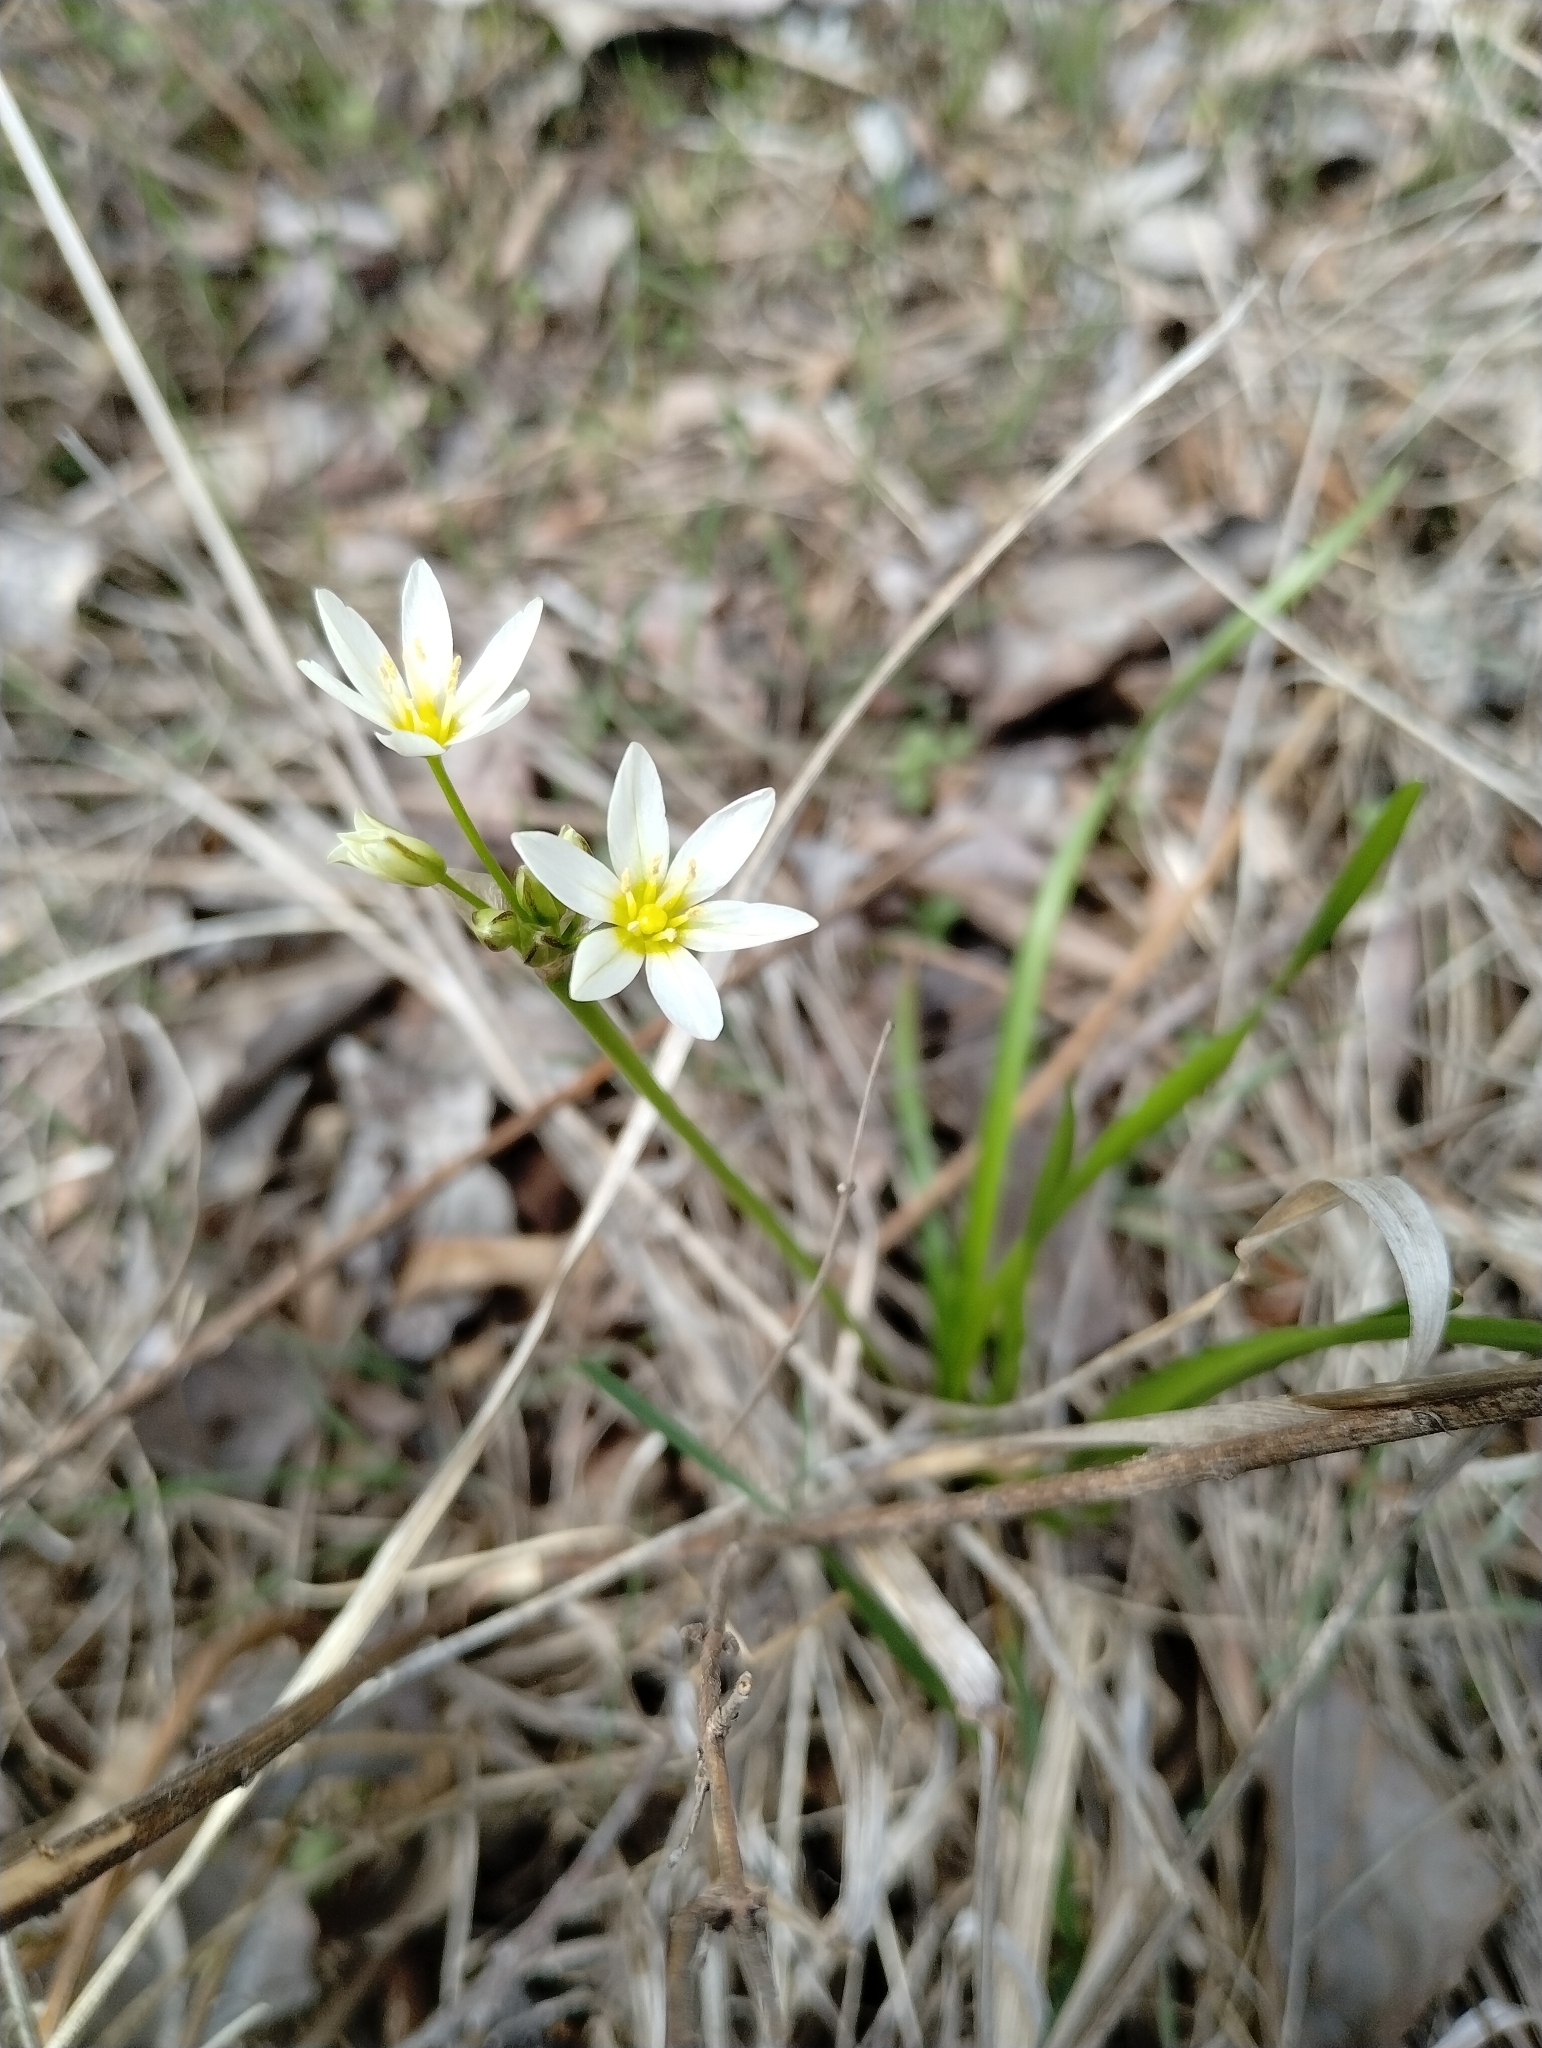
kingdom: Plantae
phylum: Tracheophyta
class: Liliopsida
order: Asparagales
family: Amaryllidaceae
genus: Nothoscordum
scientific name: Nothoscordum bivalve
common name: Crow-poison
